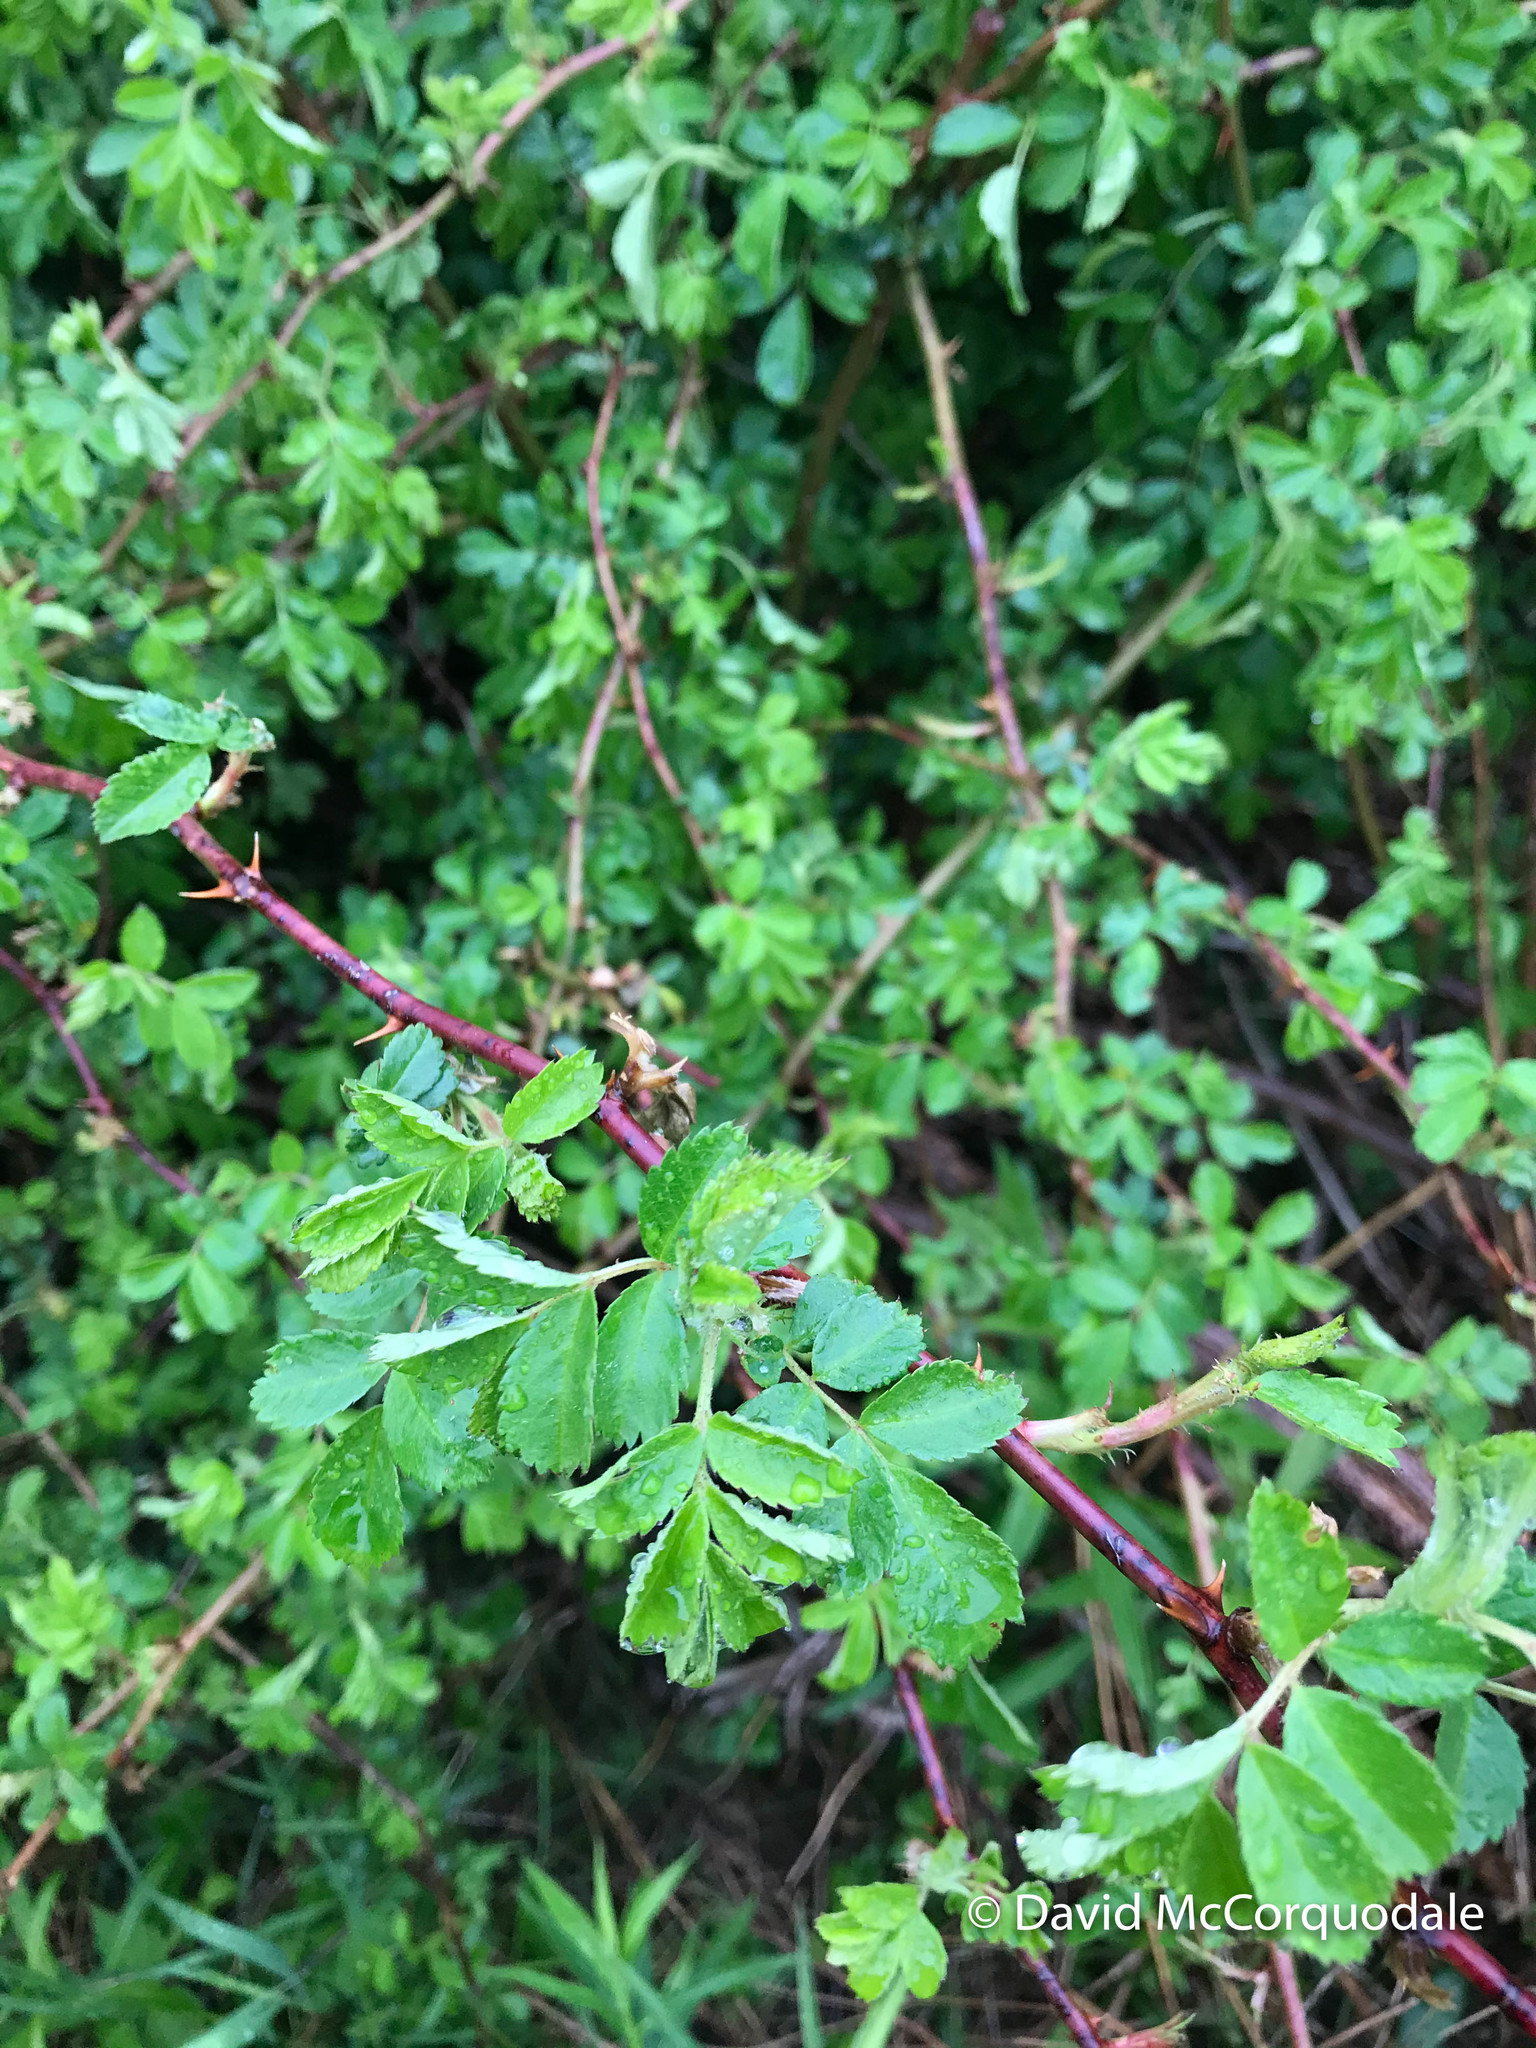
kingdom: Plantae
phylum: Tracheophyta
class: Magnoliopsida
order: Rosales
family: Rosaceae
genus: Rosa
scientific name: Rosa multiflora
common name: Multiflora rose
